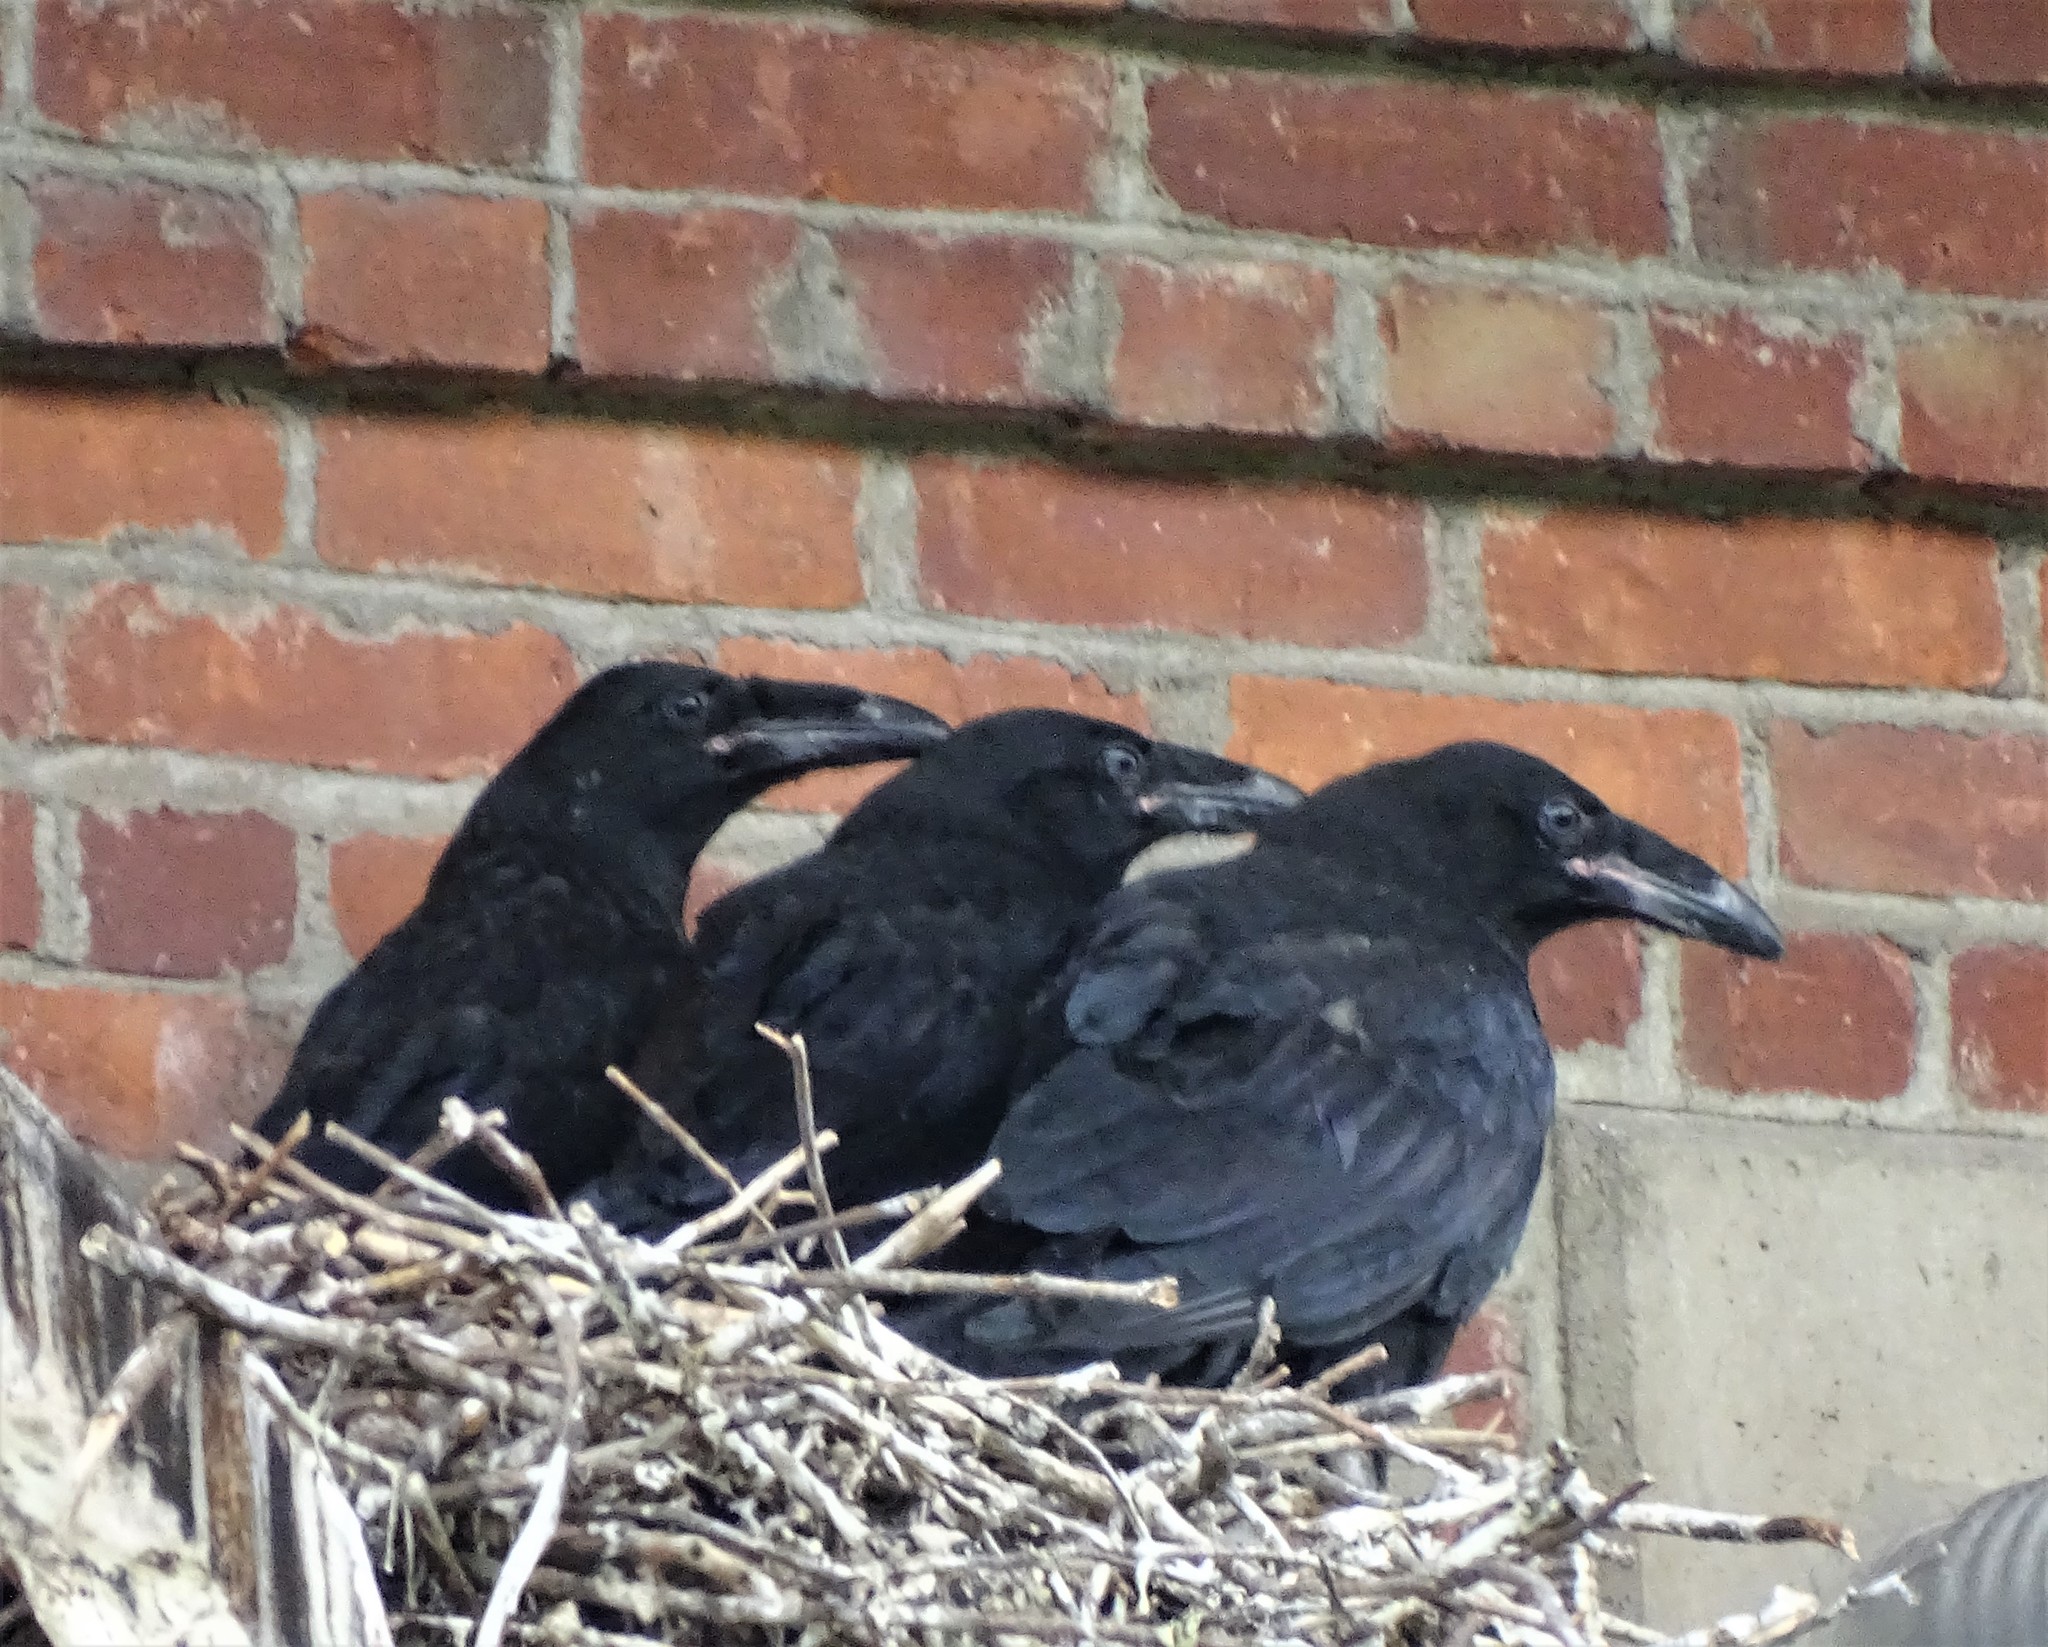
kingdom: Animalia
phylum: Chordata
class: Aves
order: Passeriformes
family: Corvidae
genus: Corvus
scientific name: Corvus corax
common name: Common raven
